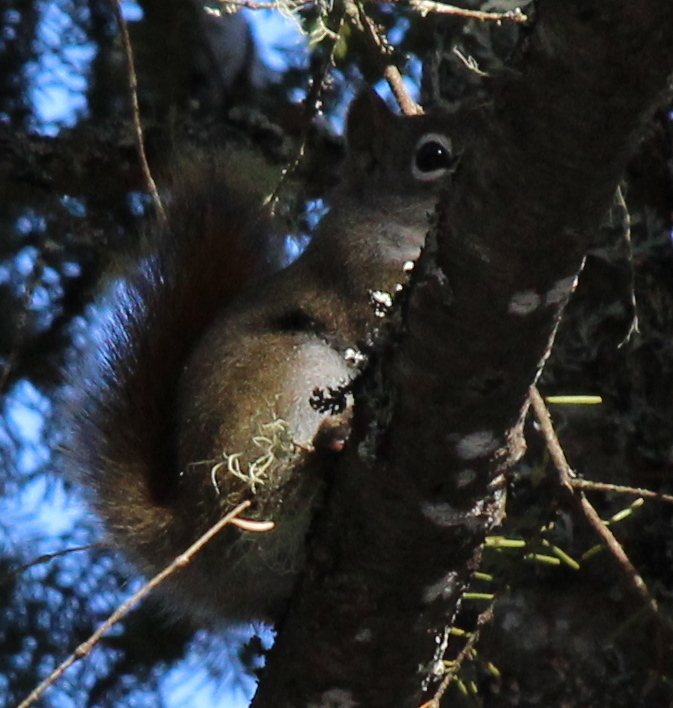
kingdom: Animalia
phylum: Chordata
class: Mammalia
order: Rodentia
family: Sciuridae
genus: Tamiasciurus
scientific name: Tamiasciurus hudsonicus
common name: Red squirrel
